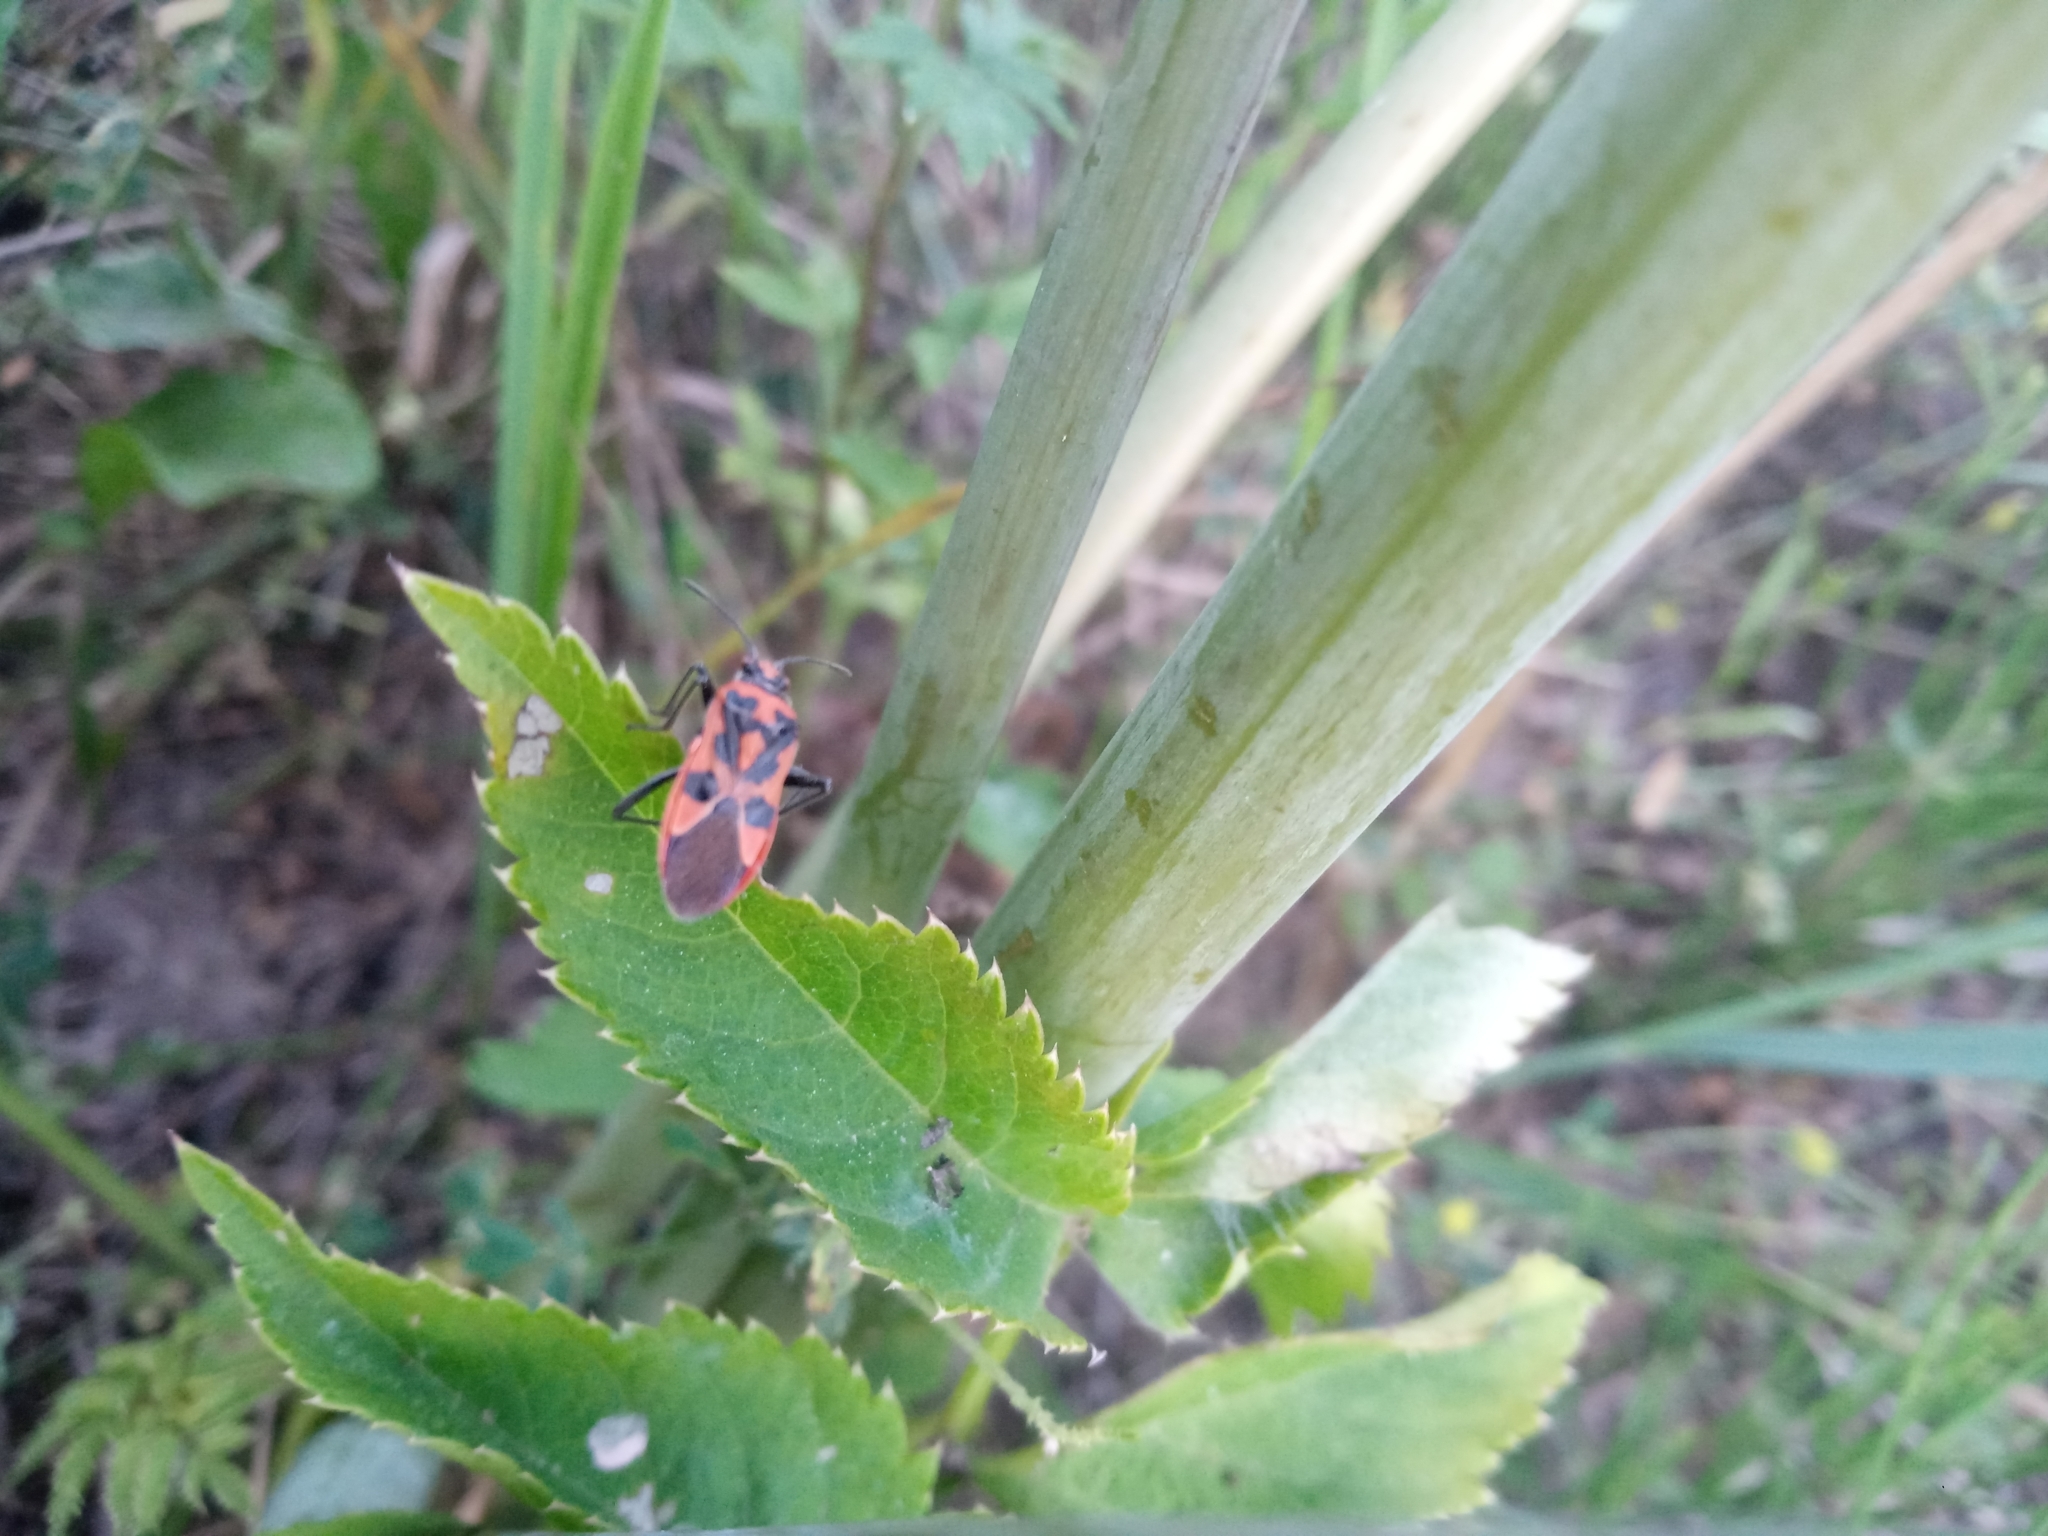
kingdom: Animalia
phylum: Arthropoda
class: Insecta
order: Hemiptera
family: Rhopalidae
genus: Corizus
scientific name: Corizus hyoscyami
